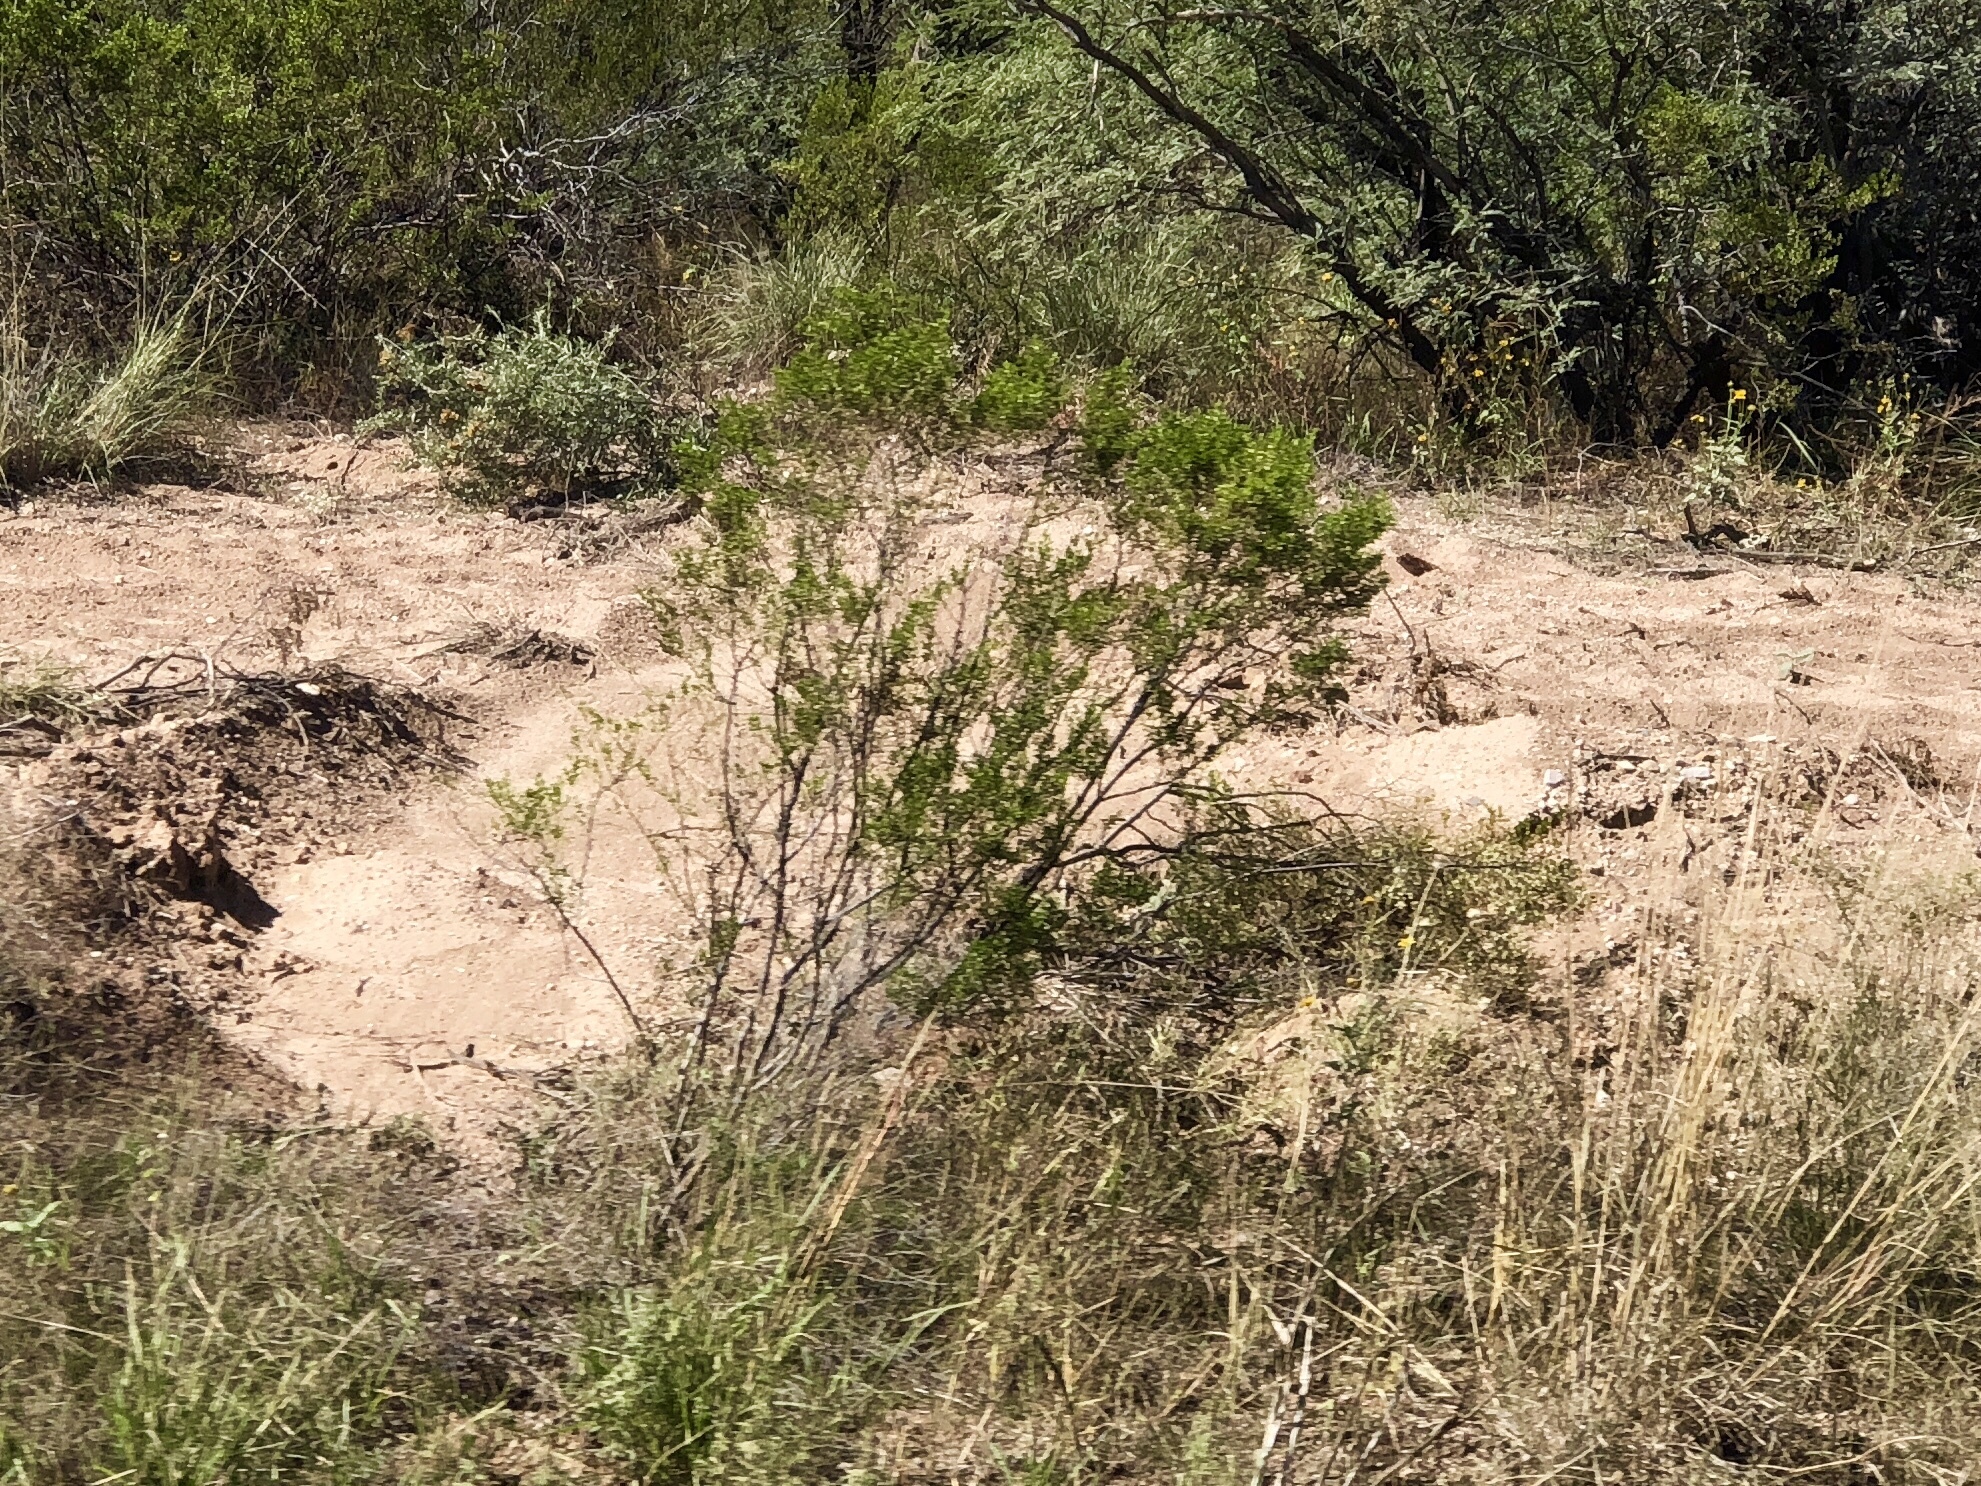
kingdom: Plantae
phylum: Tracheophyta
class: Magnoliopsida
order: Zygophyllales
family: Zygophyllaceae
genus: Larrea
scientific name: Larrea tridentata
